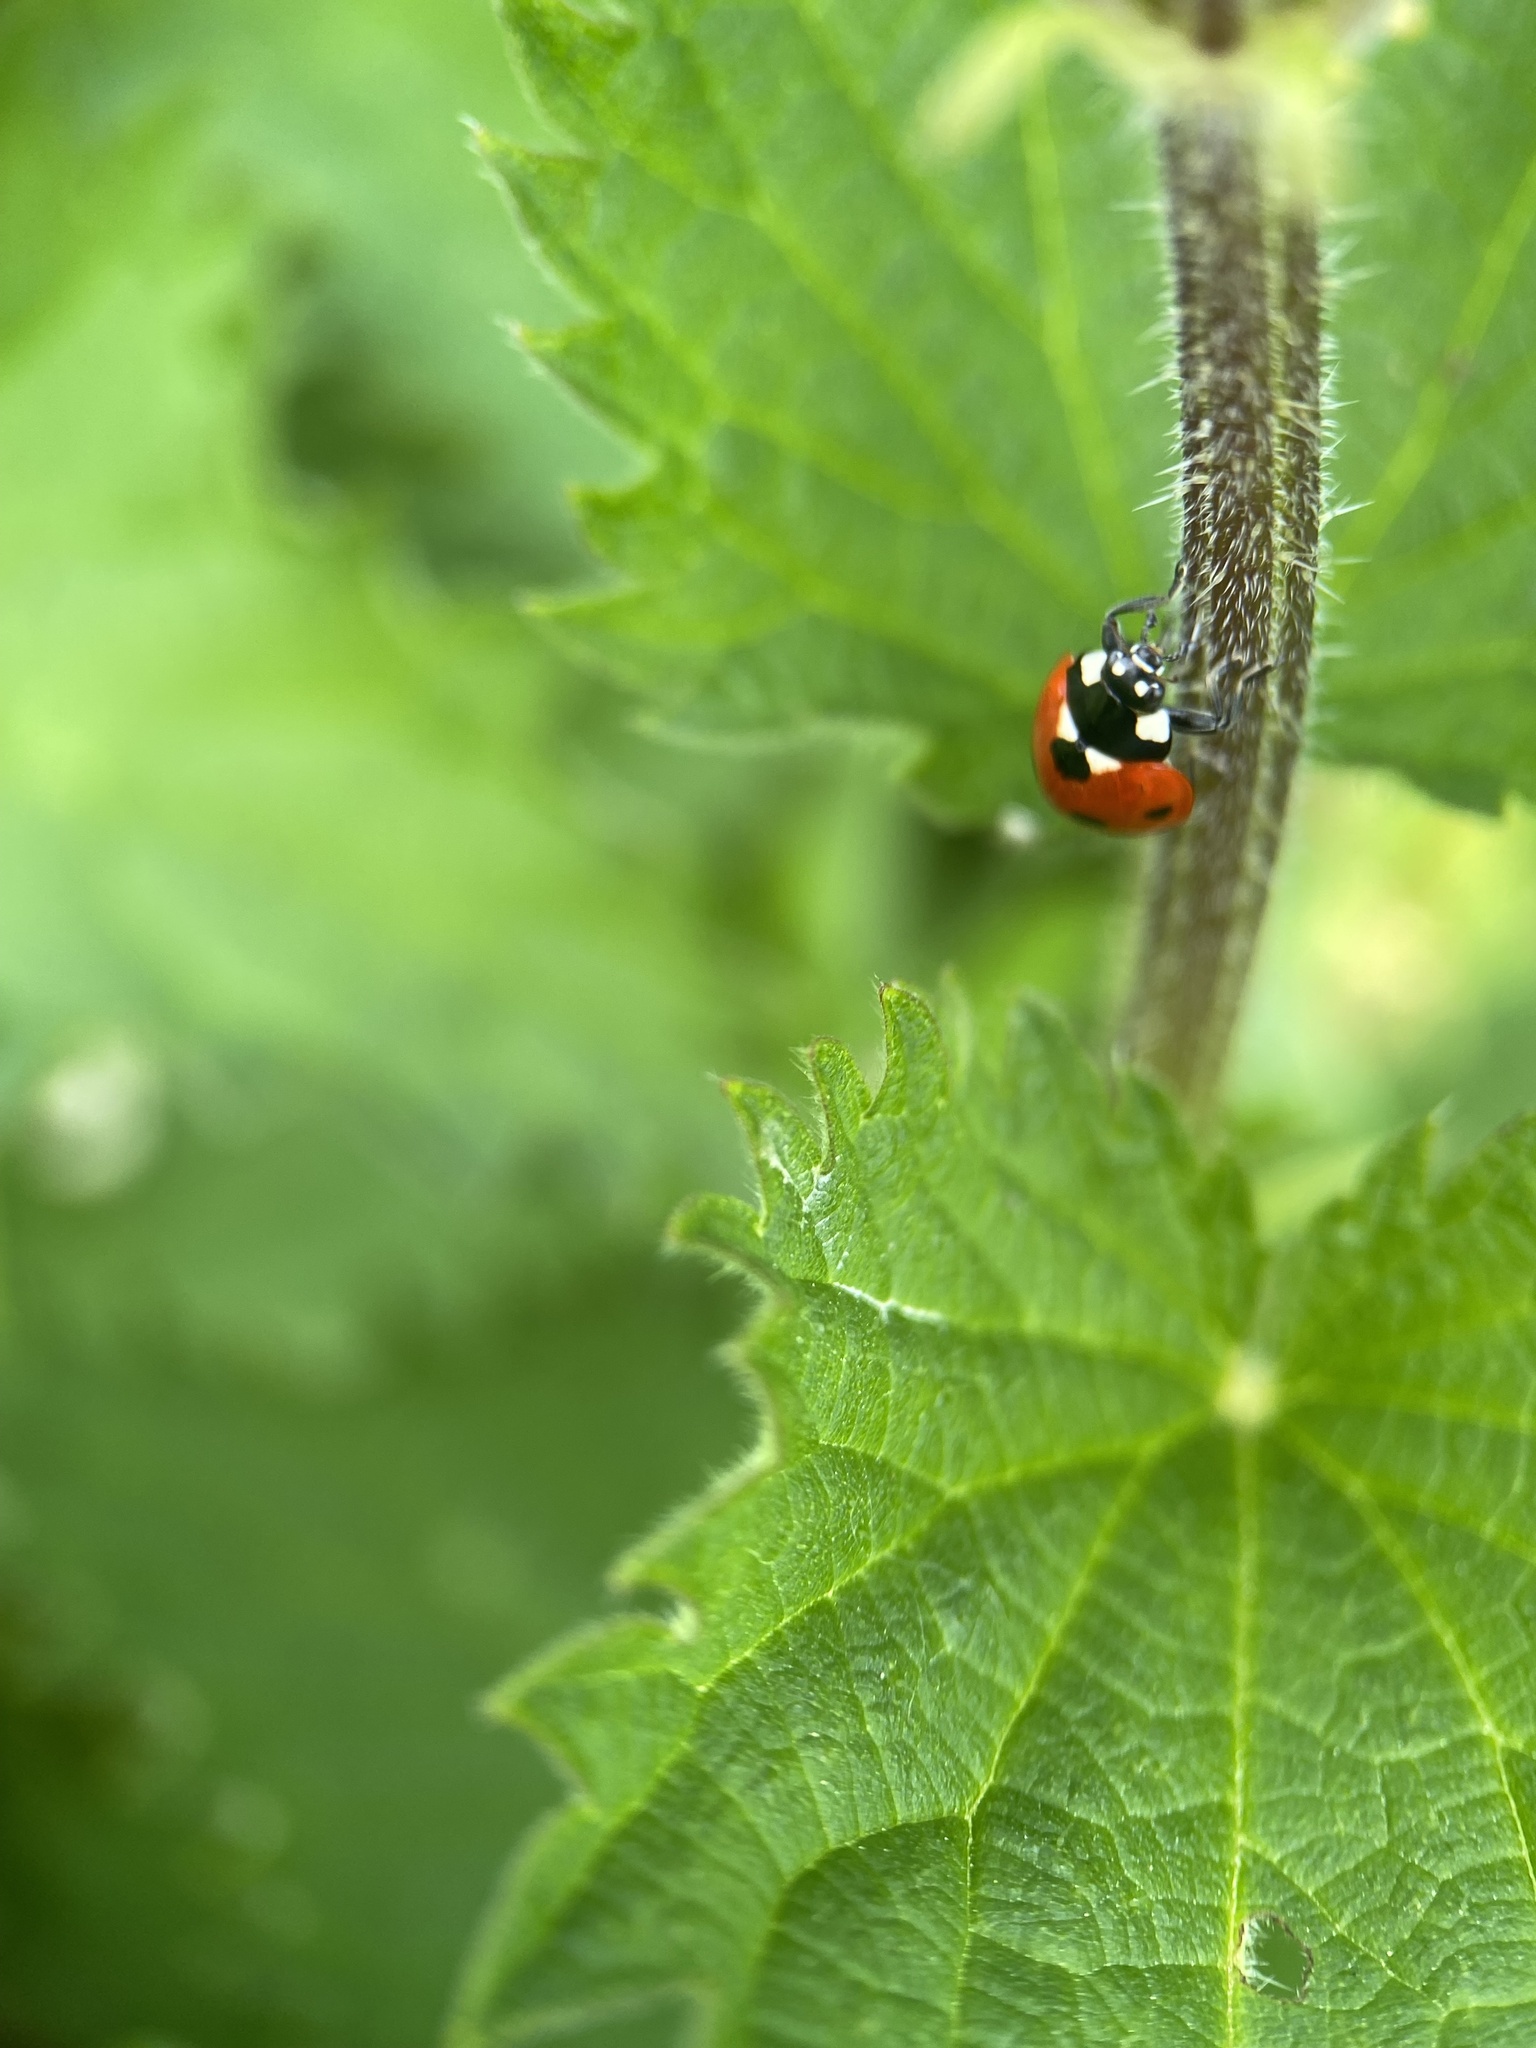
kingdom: Animalia
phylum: Arthropoda
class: Insecta
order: Coleoptera
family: Coccinellidae
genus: Coccinella
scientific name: Coccinella septempunctata
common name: Sevenspotted lady beetle
